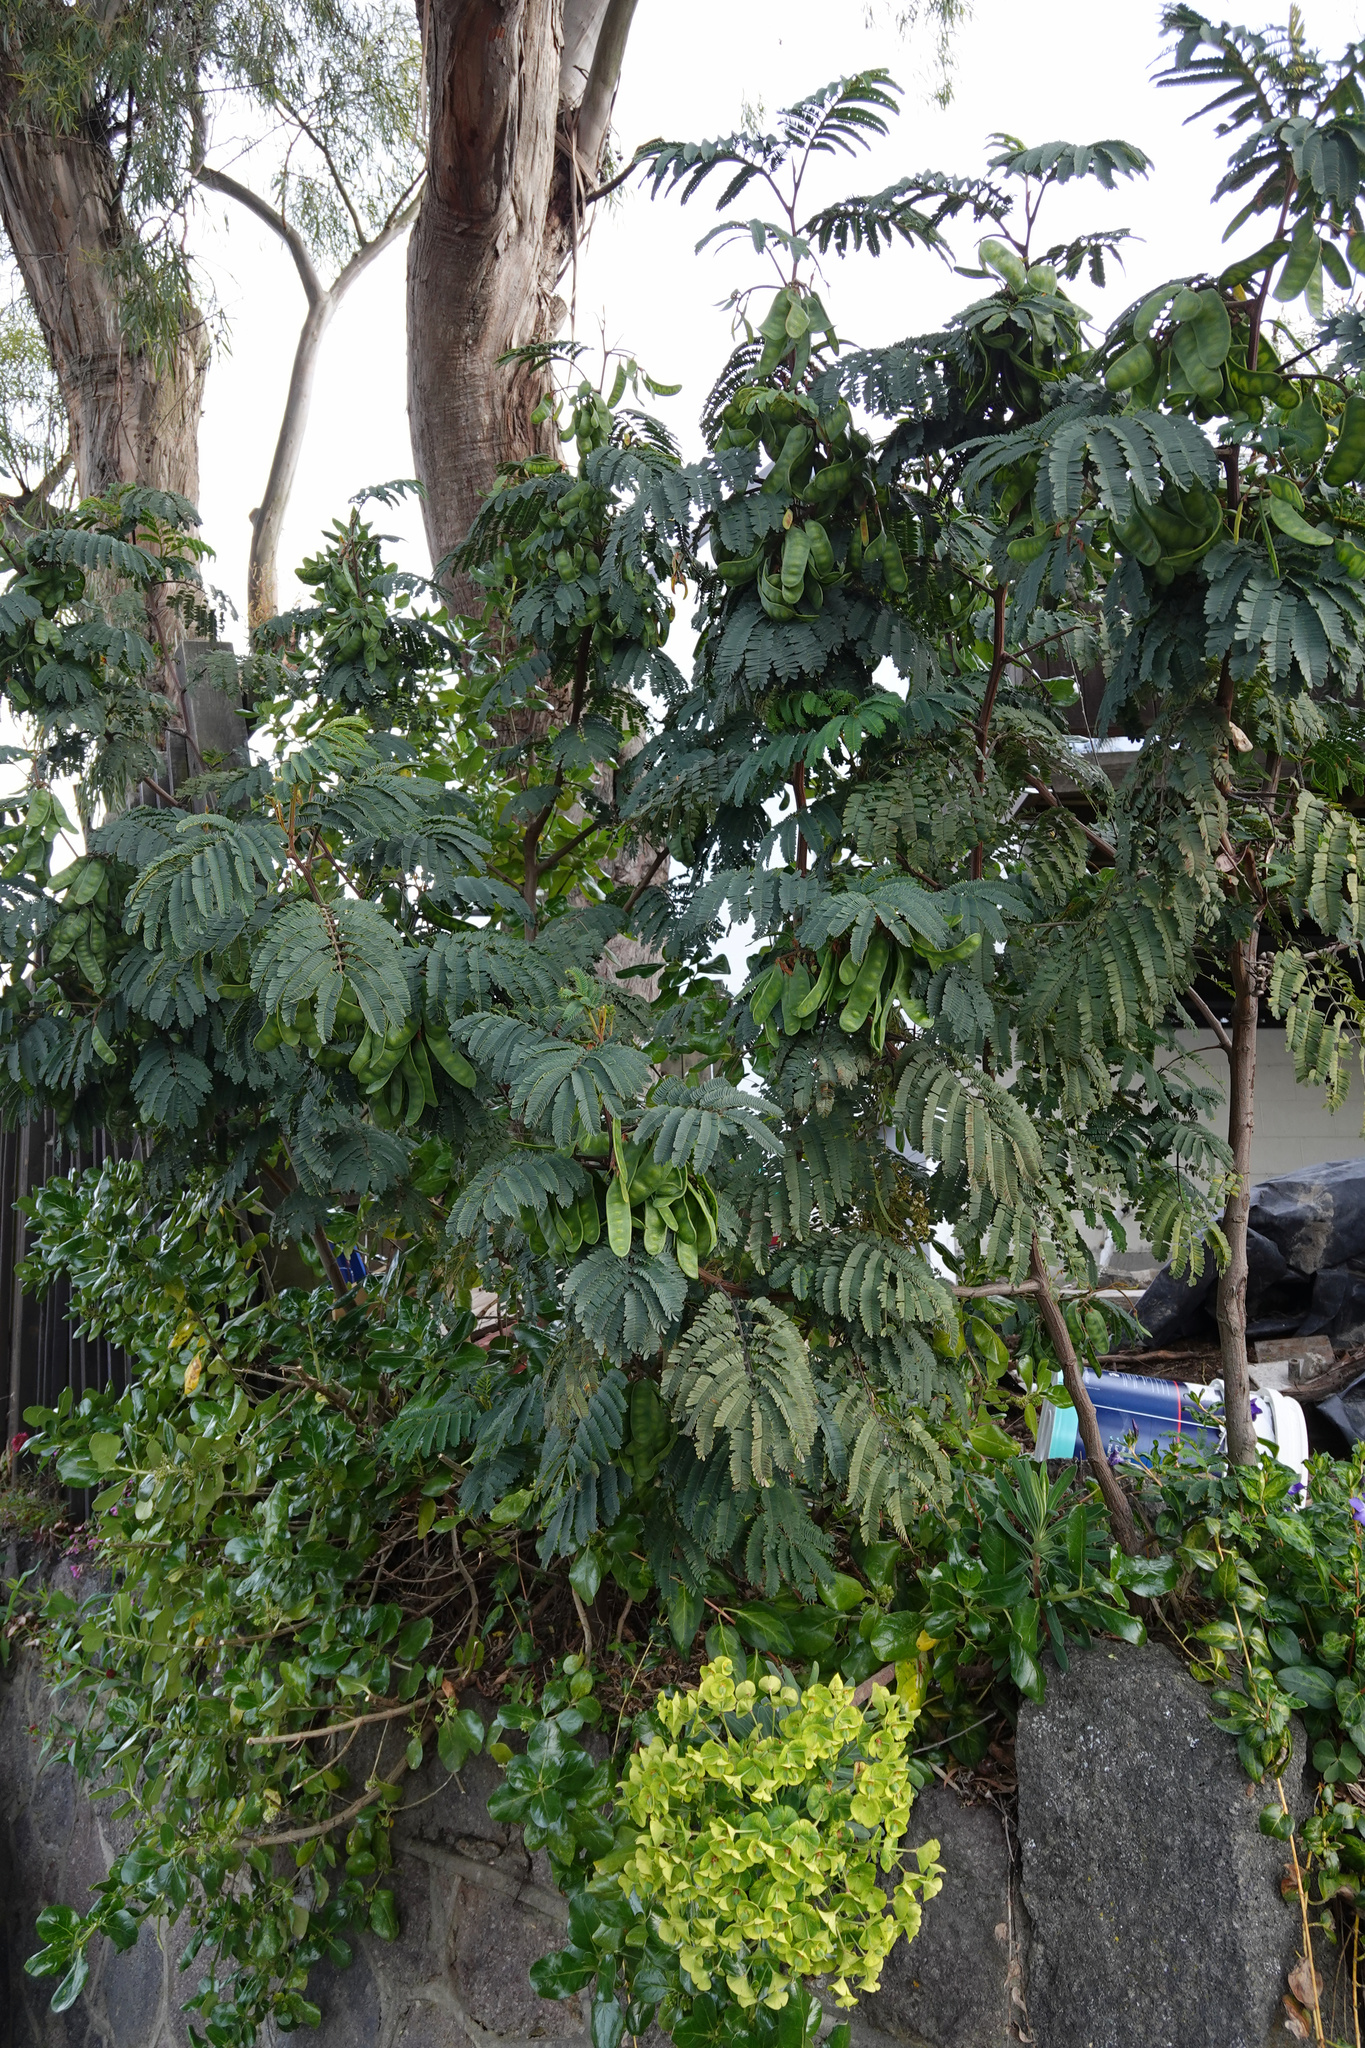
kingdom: Plantae
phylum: Tracheophyta
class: Magnoliopsida
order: Fabales
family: Fabaceae
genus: Paraserianthes
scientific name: Paraserianthes lophantha
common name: Plume albizia
